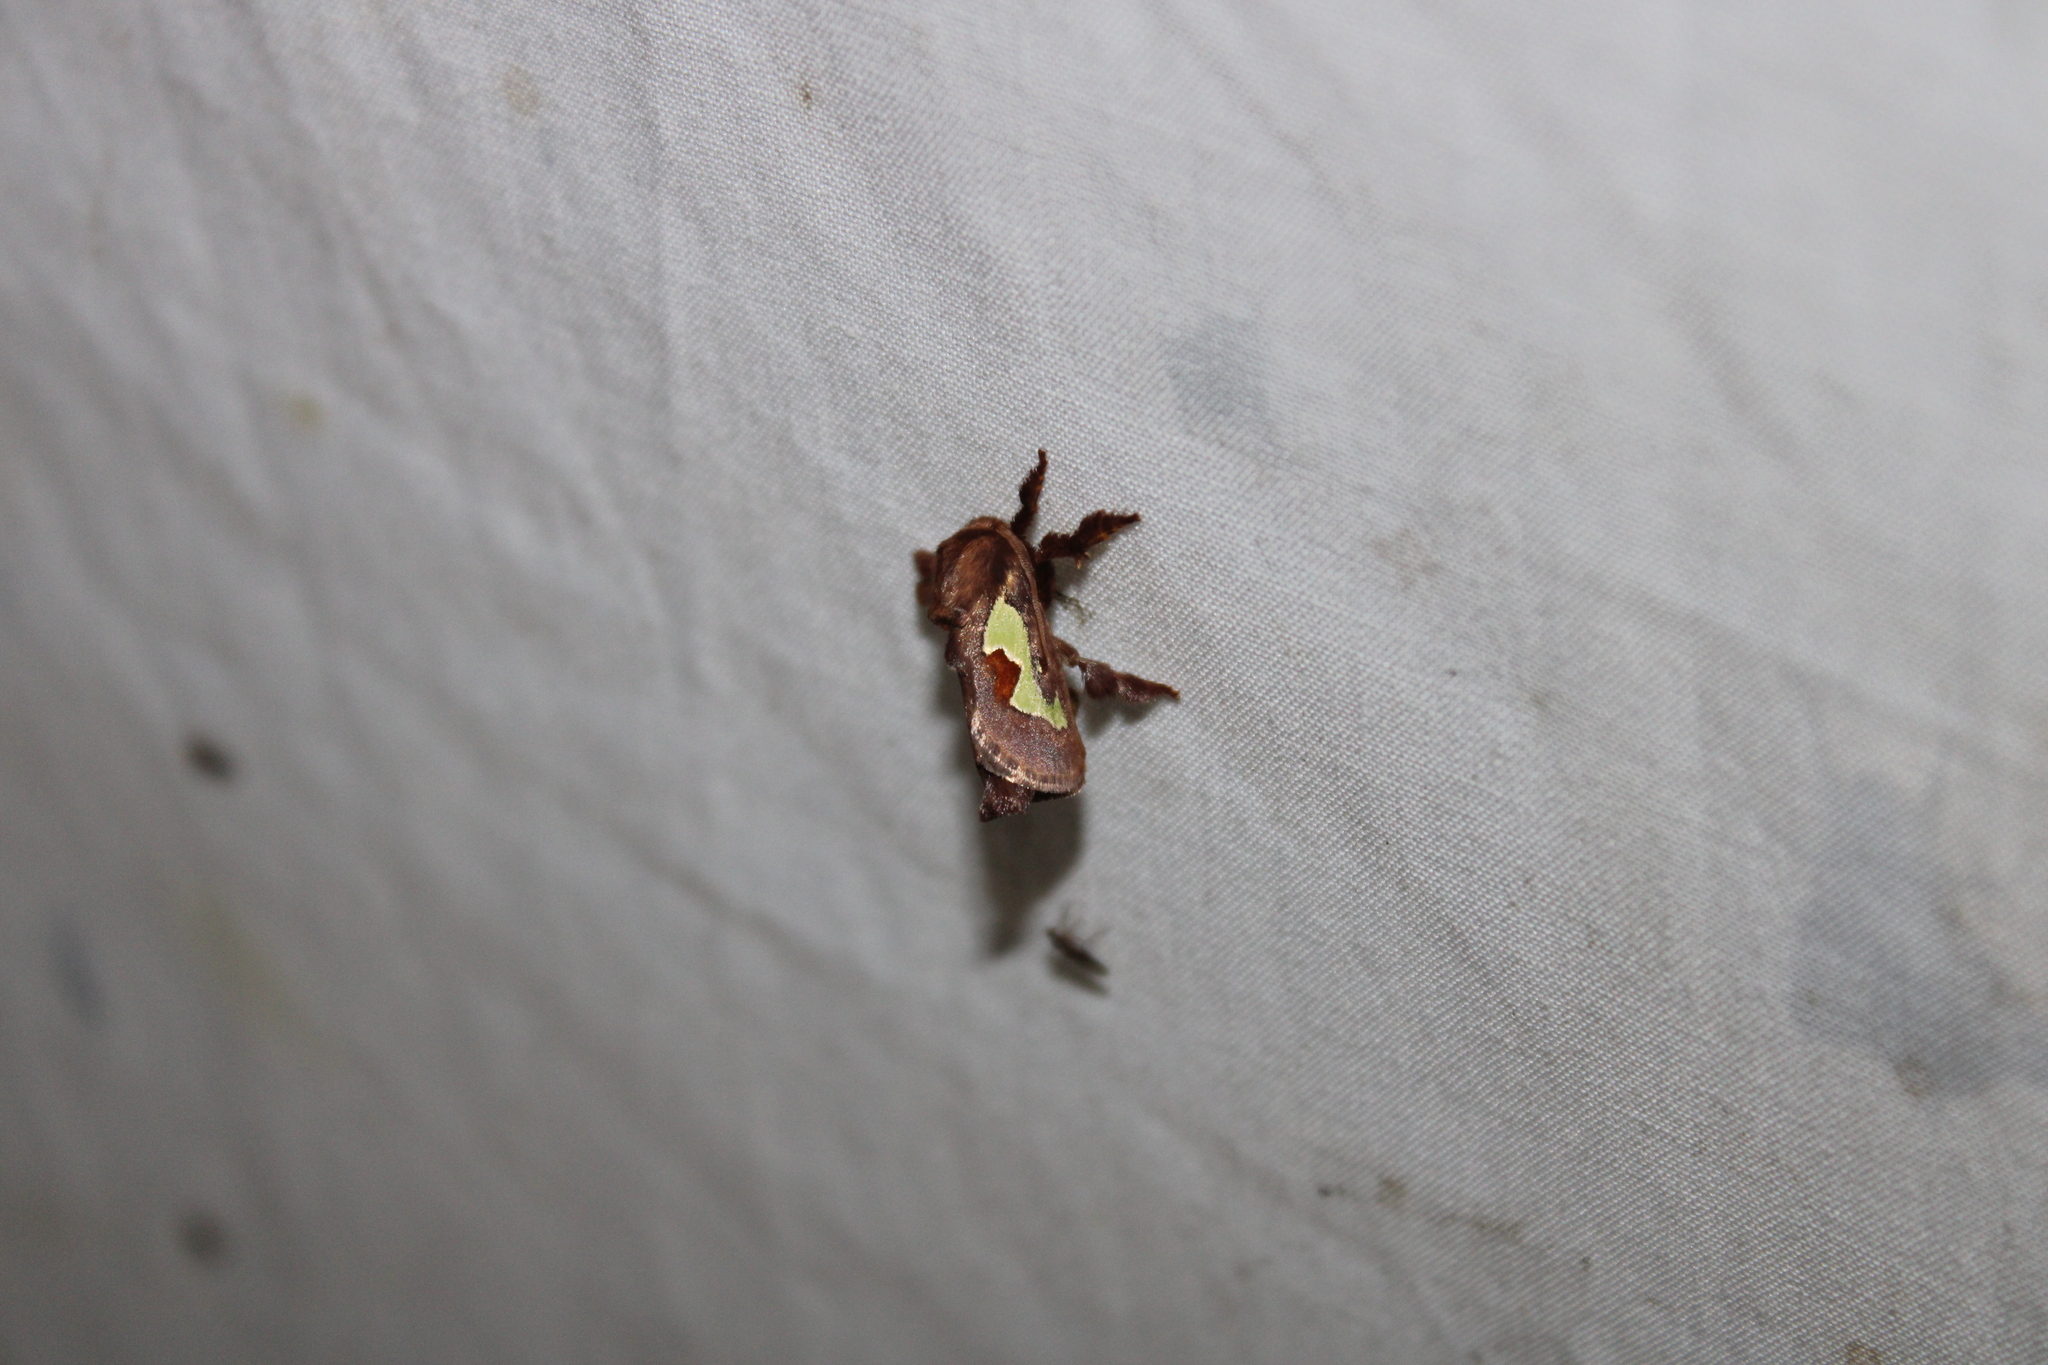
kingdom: Animalia
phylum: Arthropoda
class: Insecta
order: Lepidoptera
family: Limacodidae
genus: Euclea
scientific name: Euclea delphinii
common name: Spiny oak-slug moth
